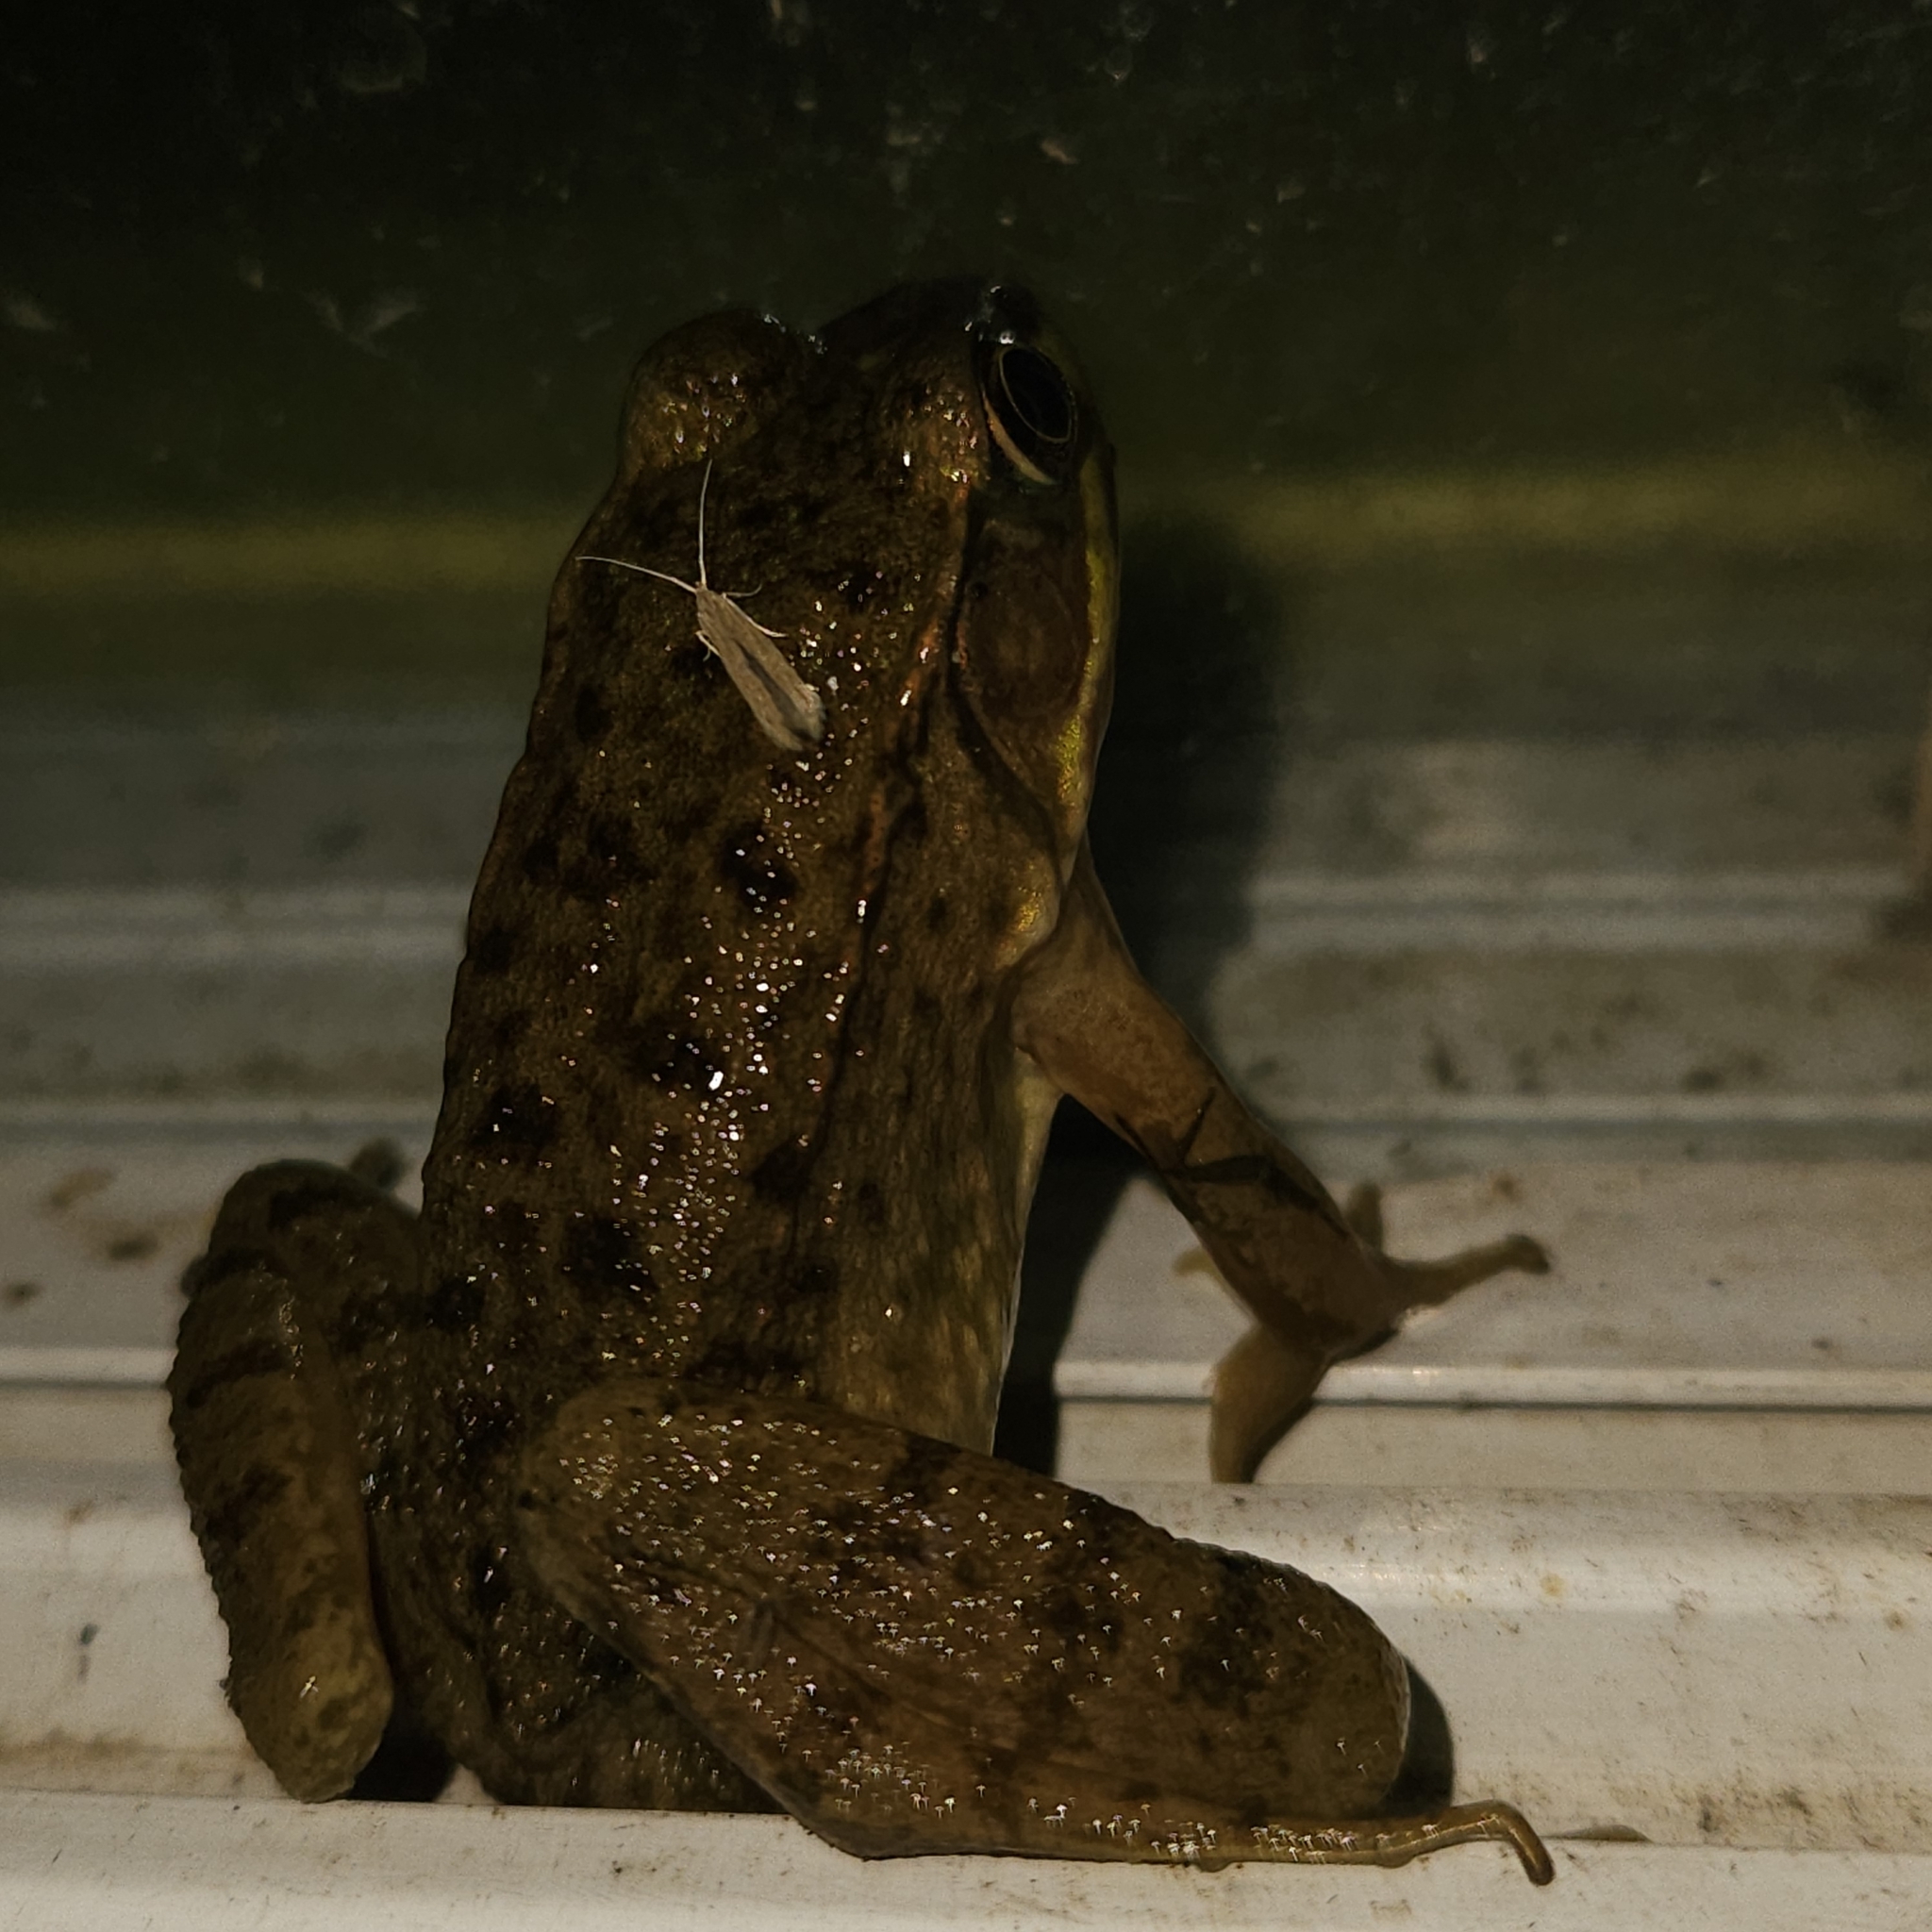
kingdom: Animalia
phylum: Chordata
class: Amphibia
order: Anura
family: Ranidae
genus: Lithobates
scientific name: Lithobates clamitans
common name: Green frog
